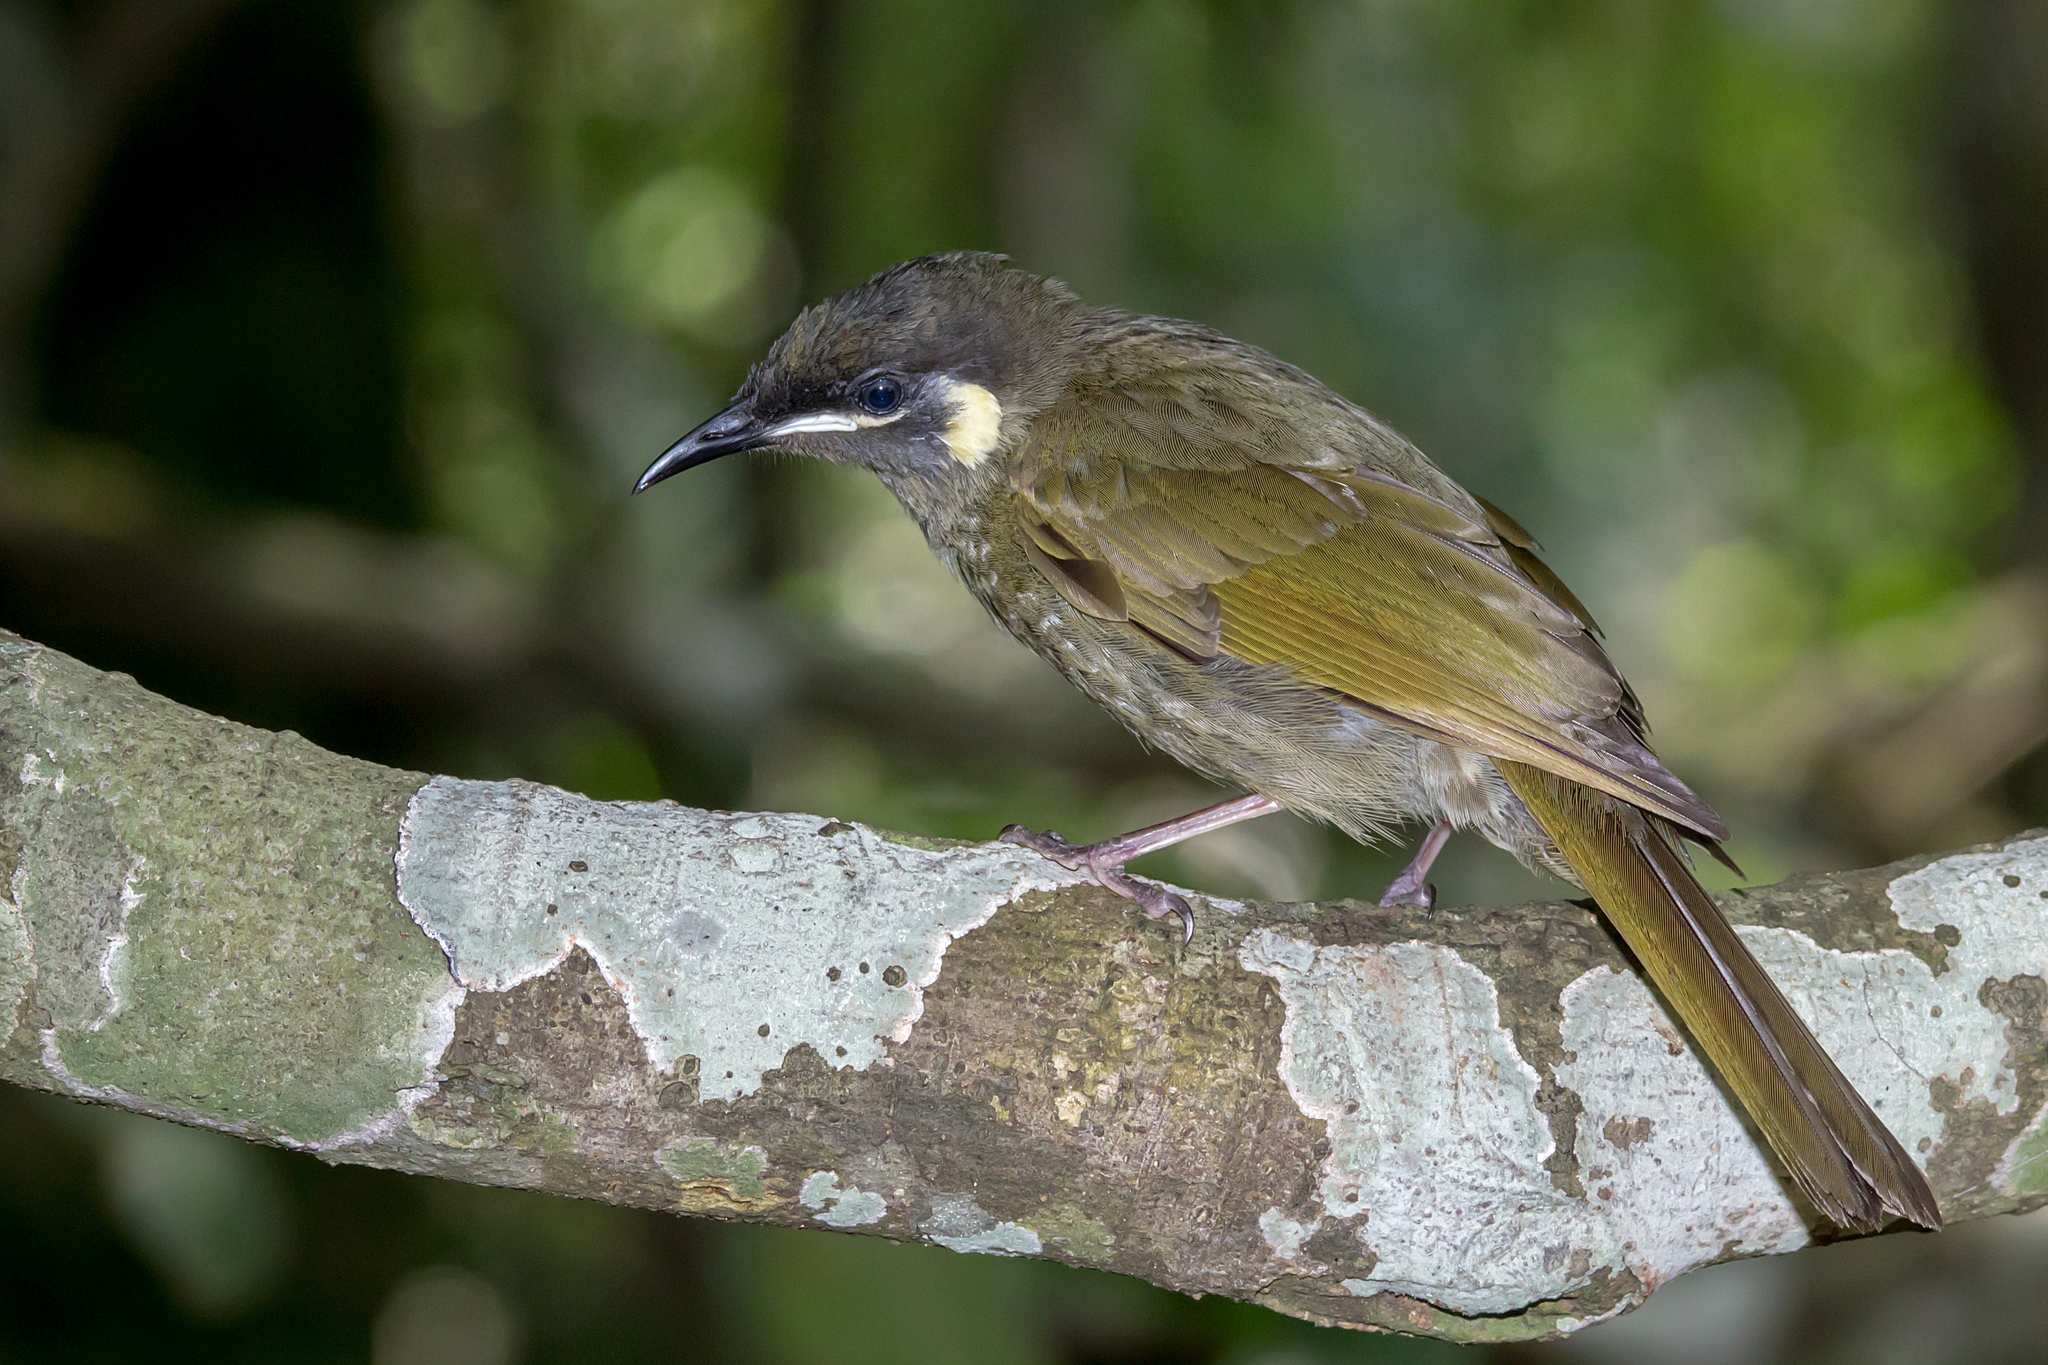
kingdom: Animalia
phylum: Chordata
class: Aves
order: Passeriformes
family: Meliphagidae
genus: Meliphaga
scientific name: Meliphaga lewinii
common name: Lewin's honeyeater
